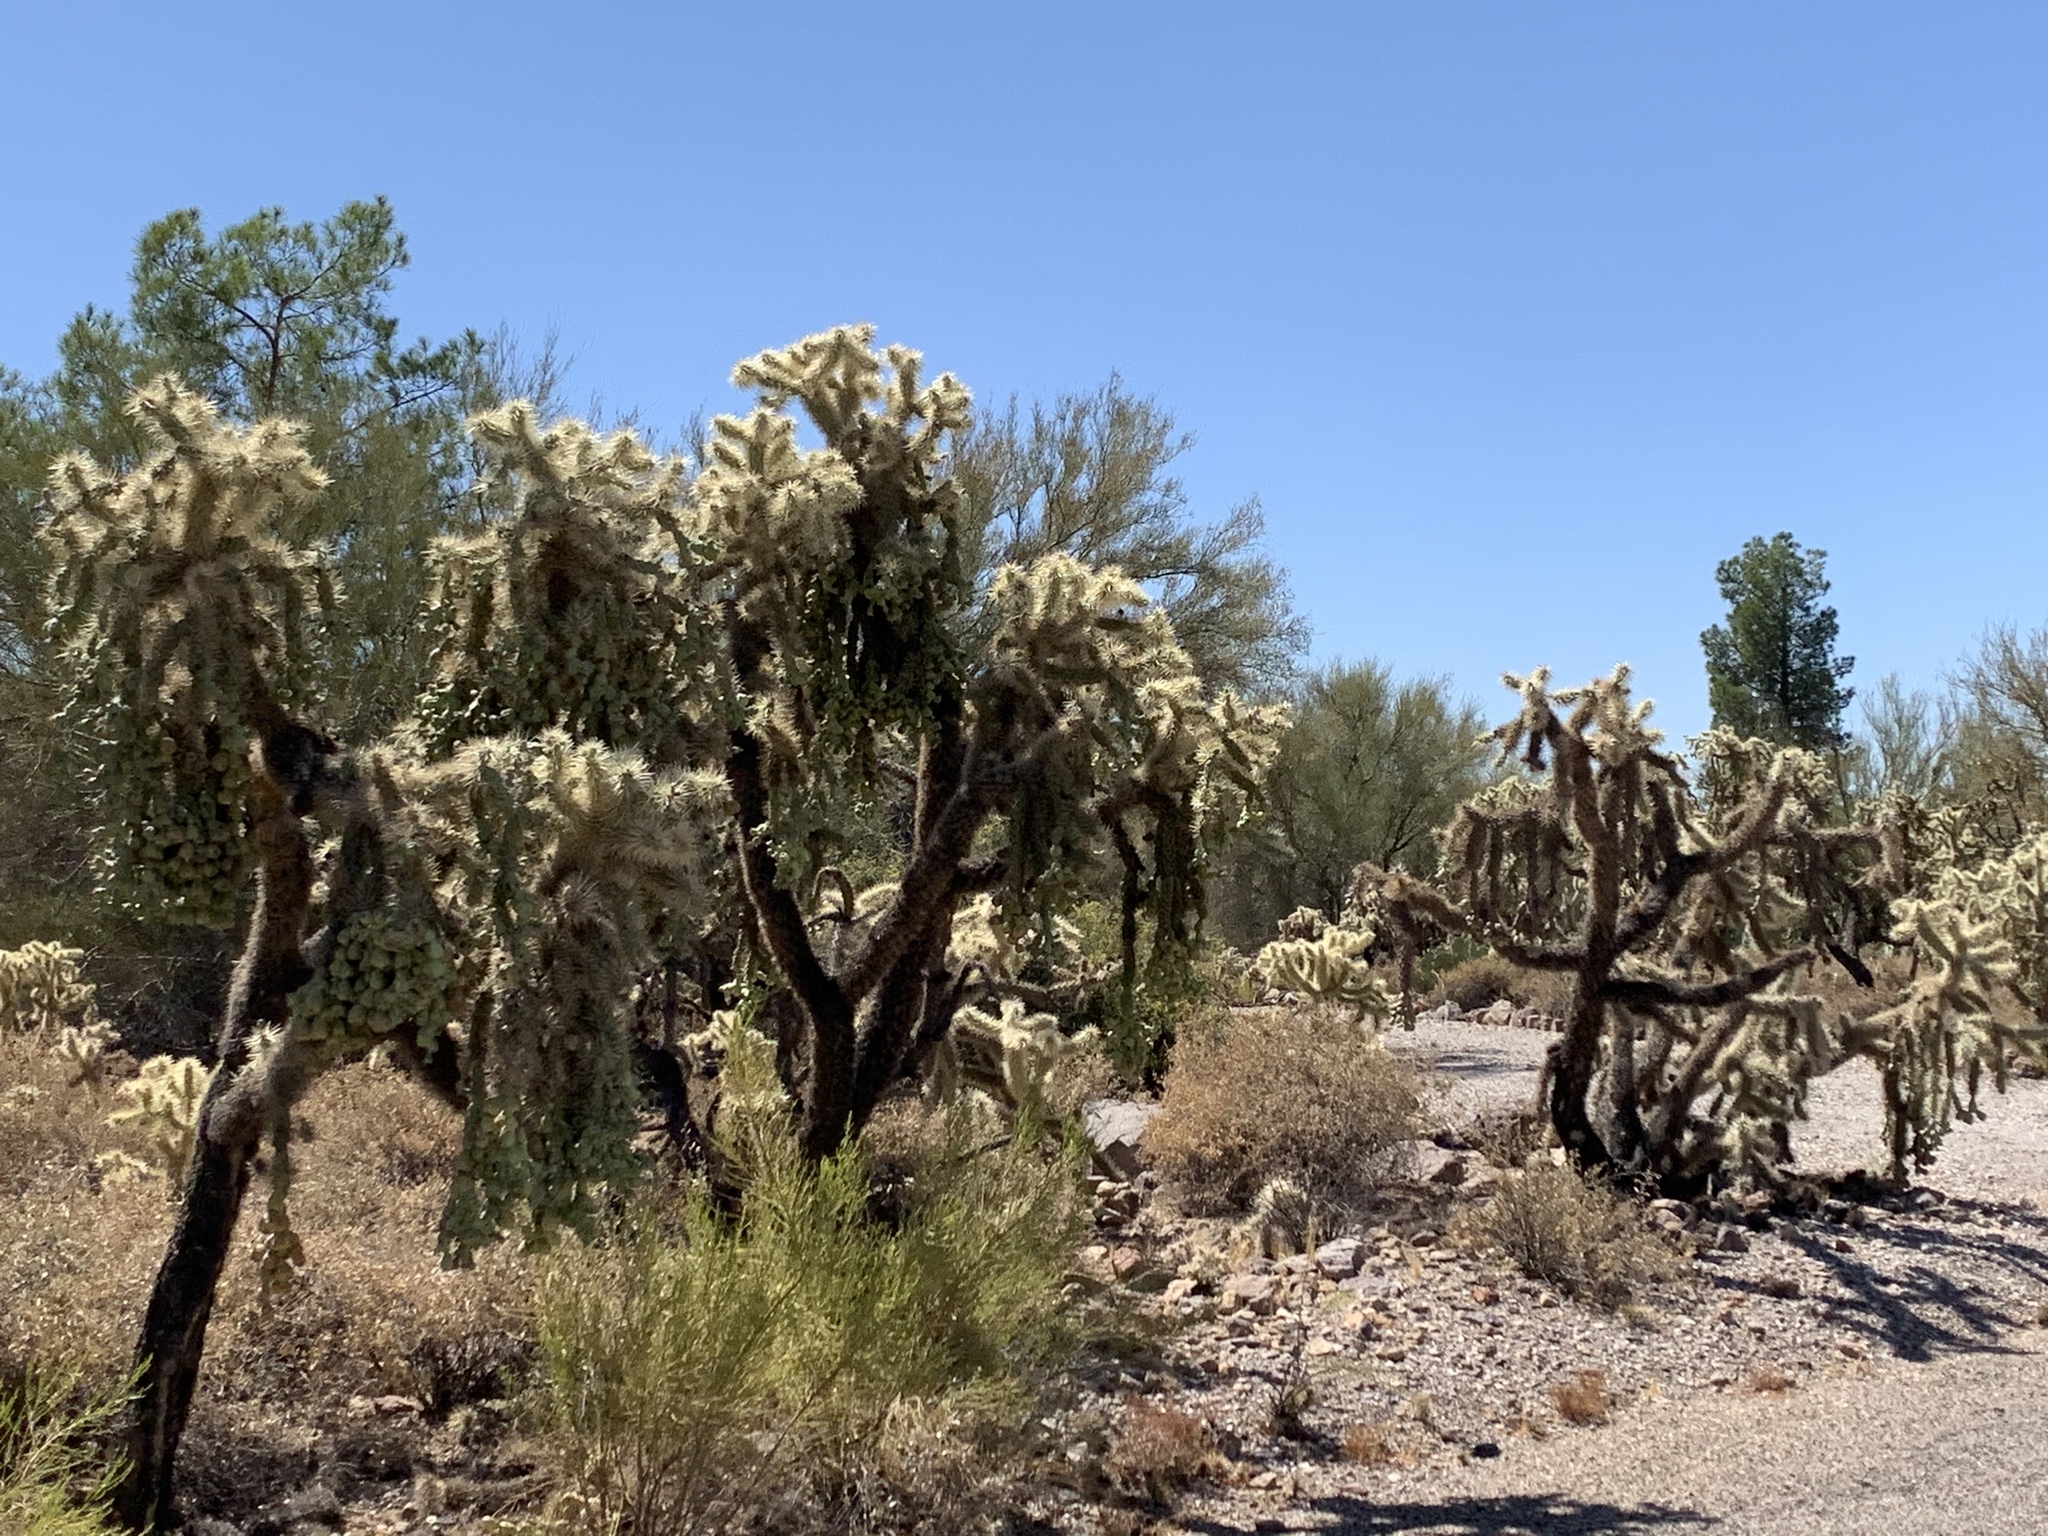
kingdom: Plantae
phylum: Tracheophyta
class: Magnoliopsida
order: Caryophyllales
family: Cactaceae
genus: Cylindropuntia
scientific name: Cylindropuntia fulgida
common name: Jumping cholla
